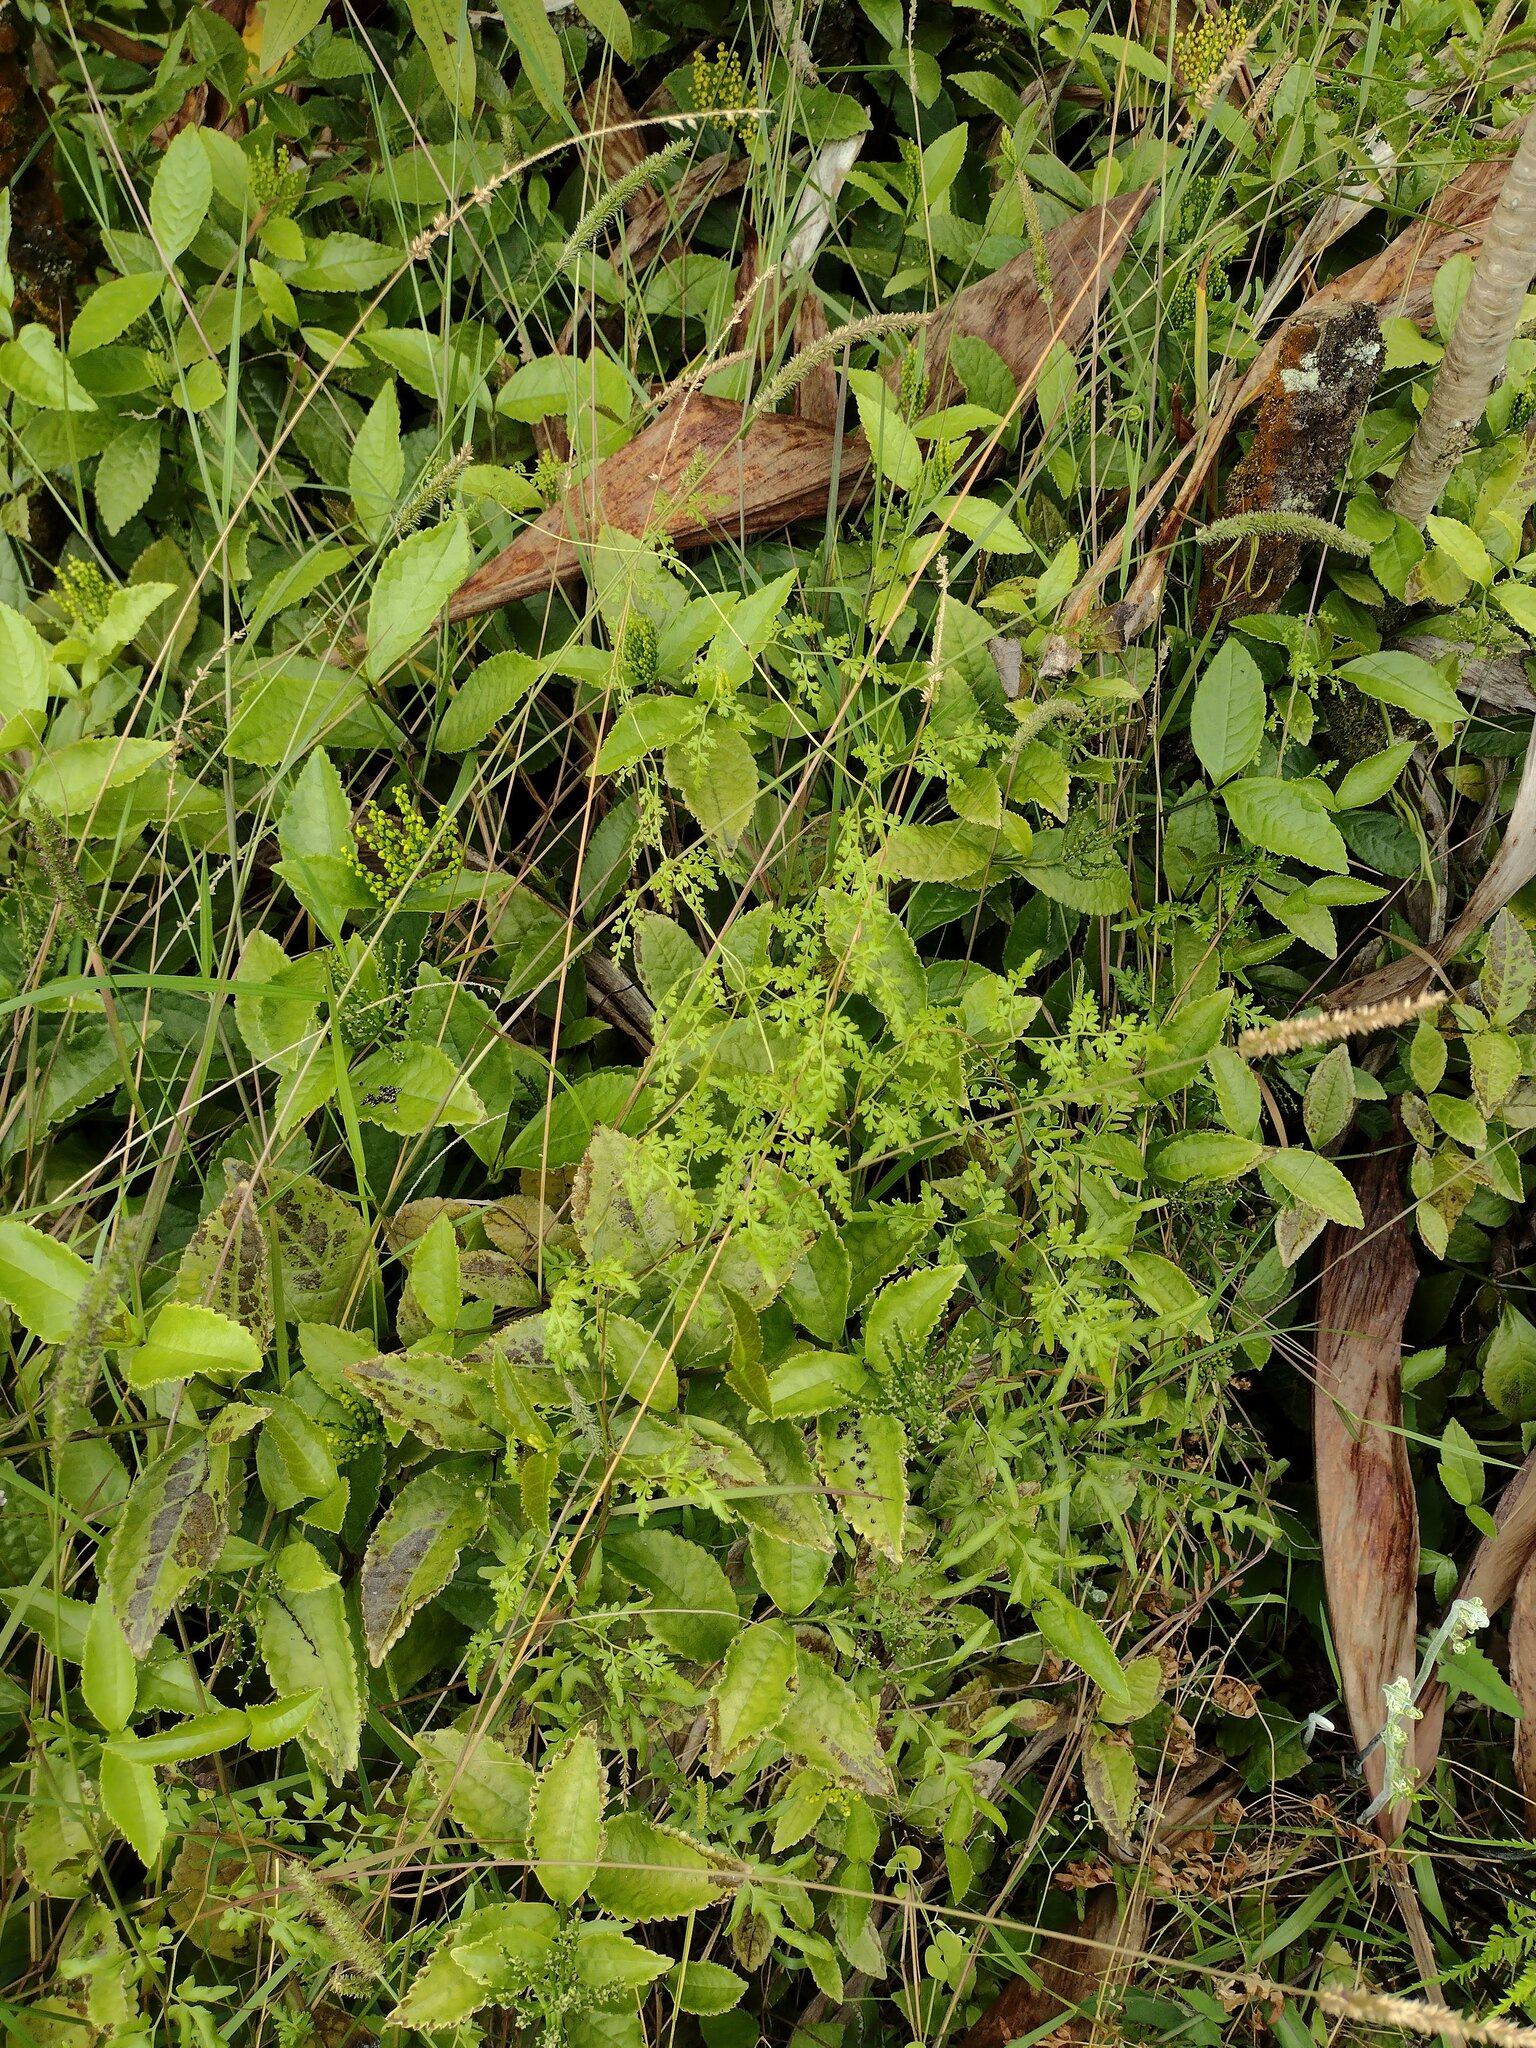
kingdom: Plantae
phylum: Tracheophyta
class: Polypodiopsida
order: Schizaeales
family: Lygodiaceae
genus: Lygodium
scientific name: Lygodium japonicum
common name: Japanese climbing fern
